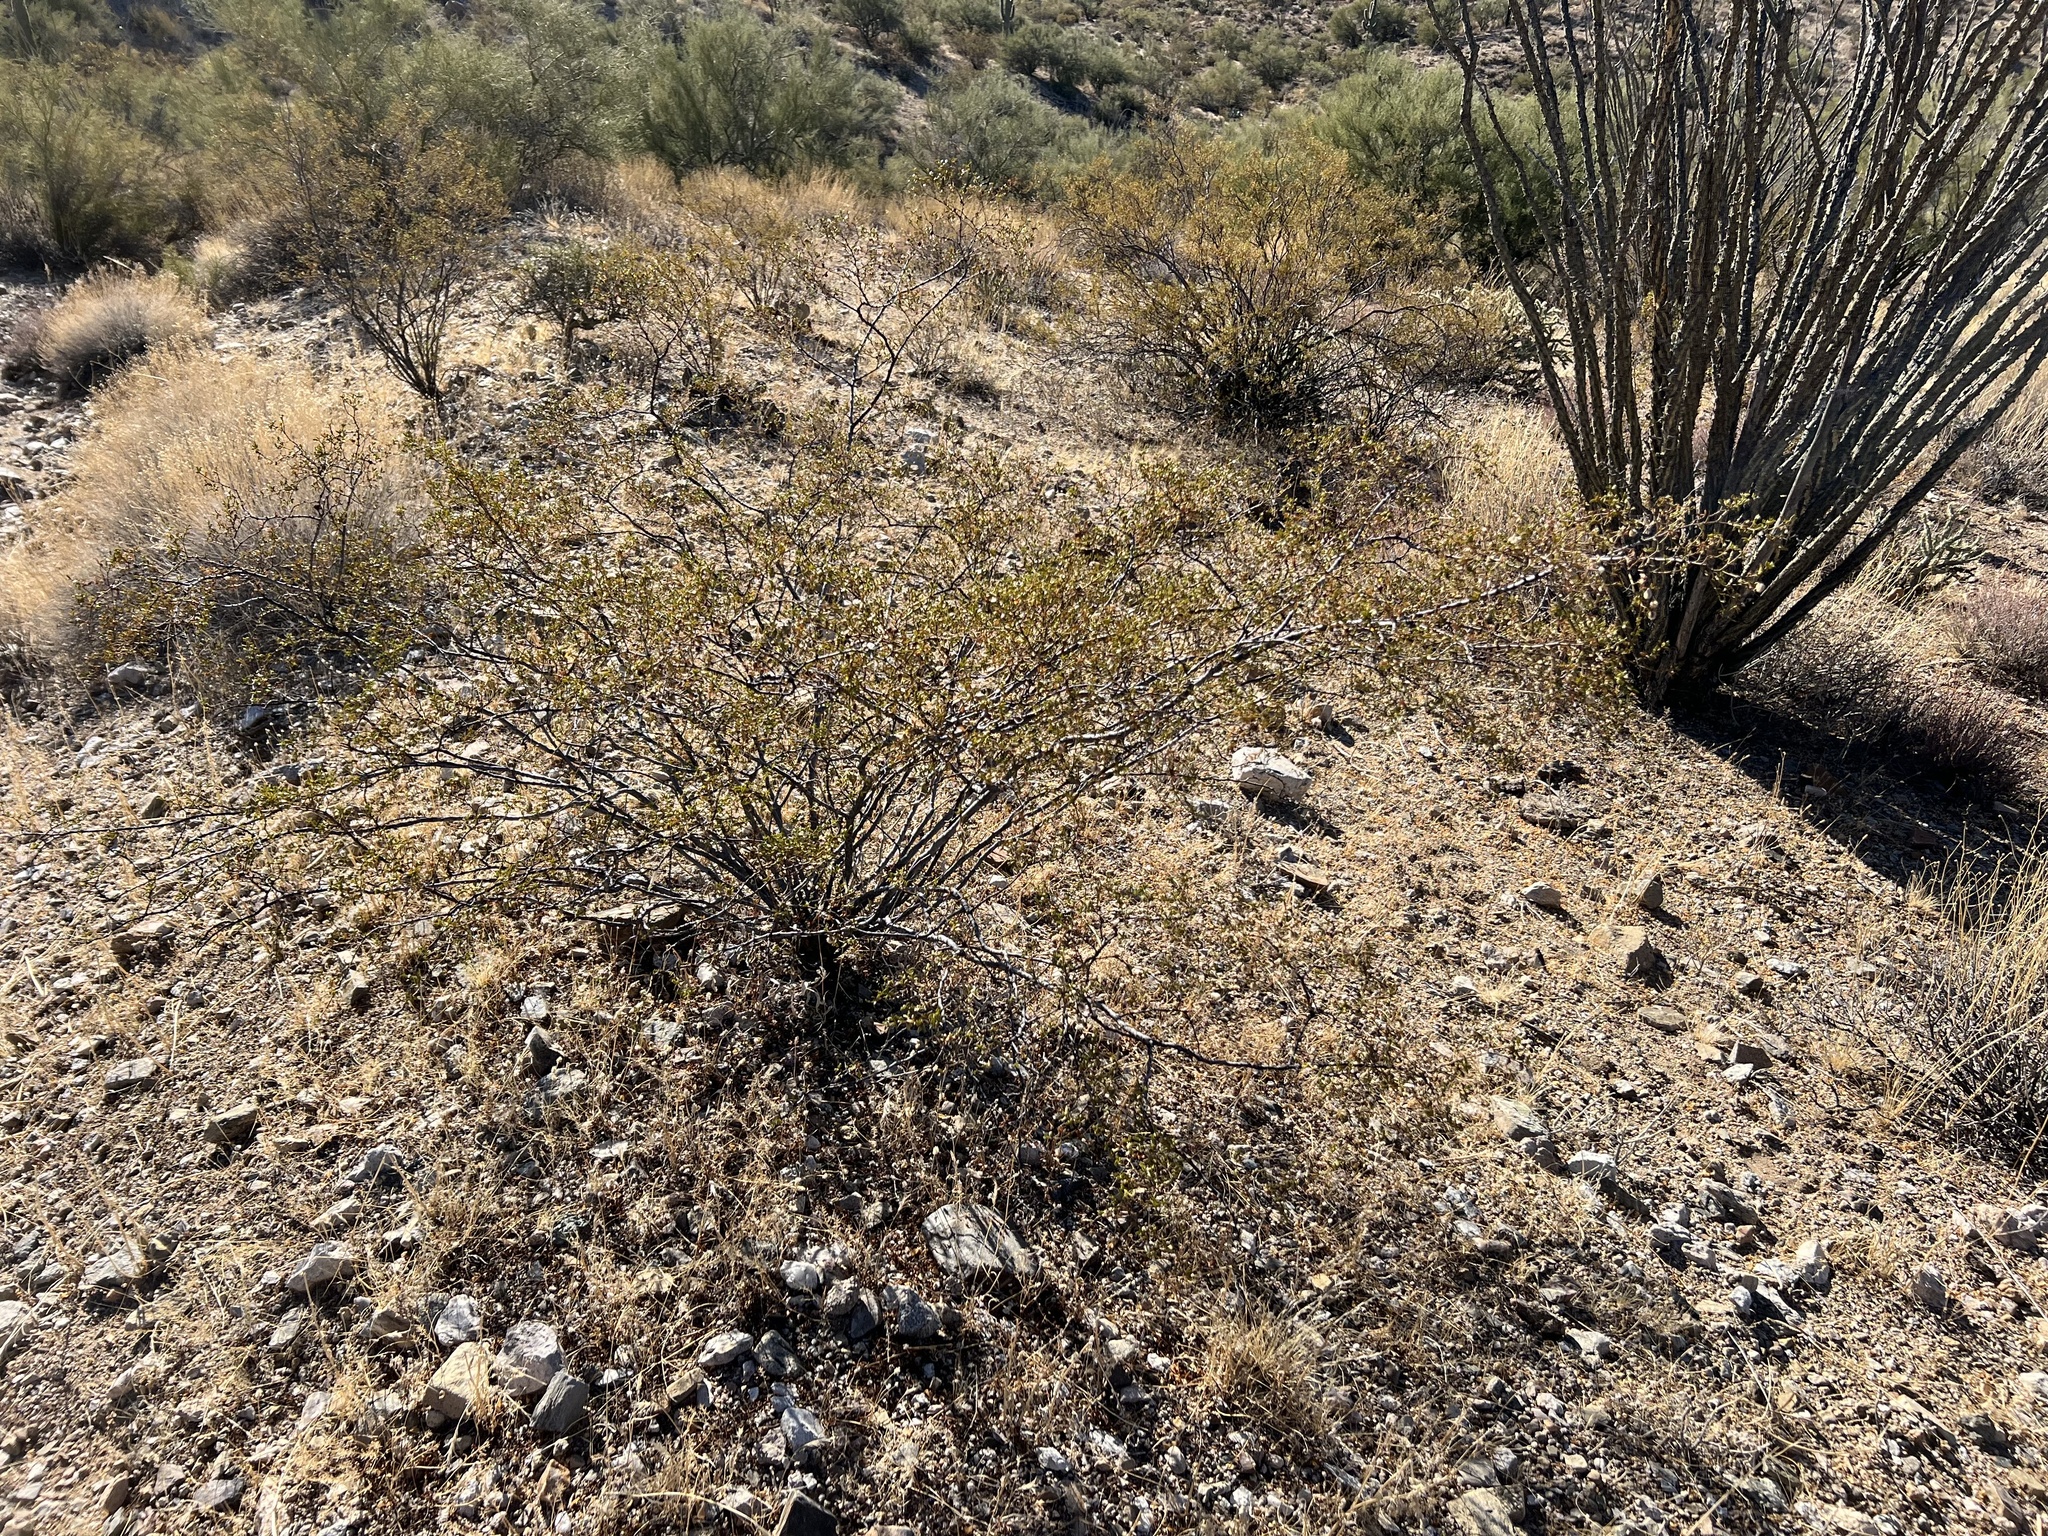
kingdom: Plantae
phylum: Tracheophyta
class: Magnoliopsida
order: Zygophyllales
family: Zygophyllaceae
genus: Larrea
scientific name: Larrea tridentata
